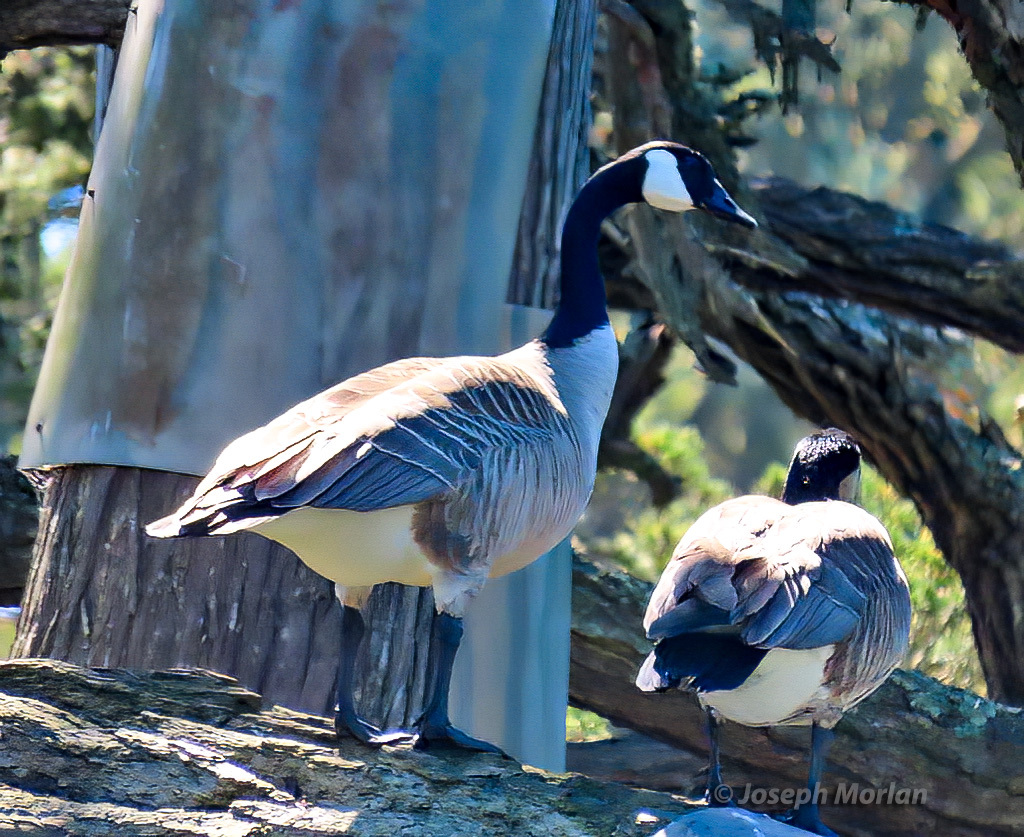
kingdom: Animalia
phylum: Chordata
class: Aves
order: Anseriformes
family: Anatidae
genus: Branta
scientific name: Branta canadensis
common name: Canada goose
